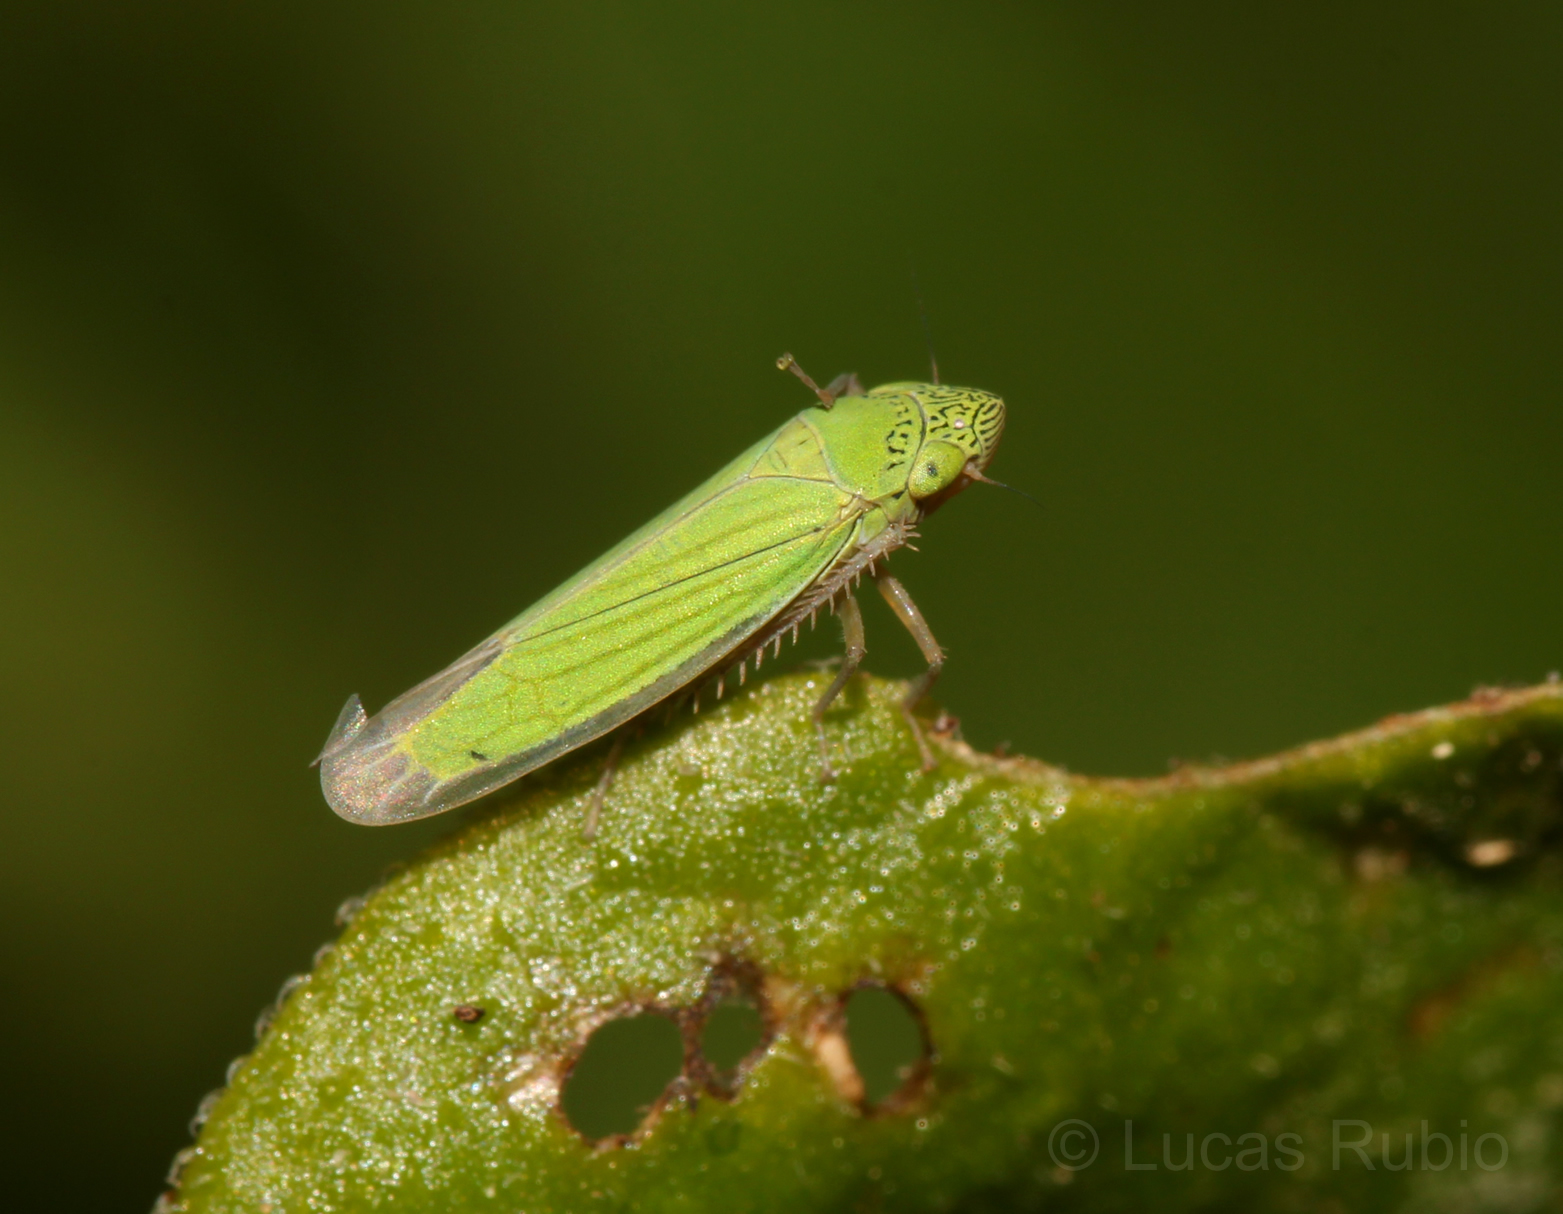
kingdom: Animalia
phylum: Arthropoda
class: Insecta
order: Hemiptera
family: Cicadellidae
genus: Hortensia
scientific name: Hortensia similis
